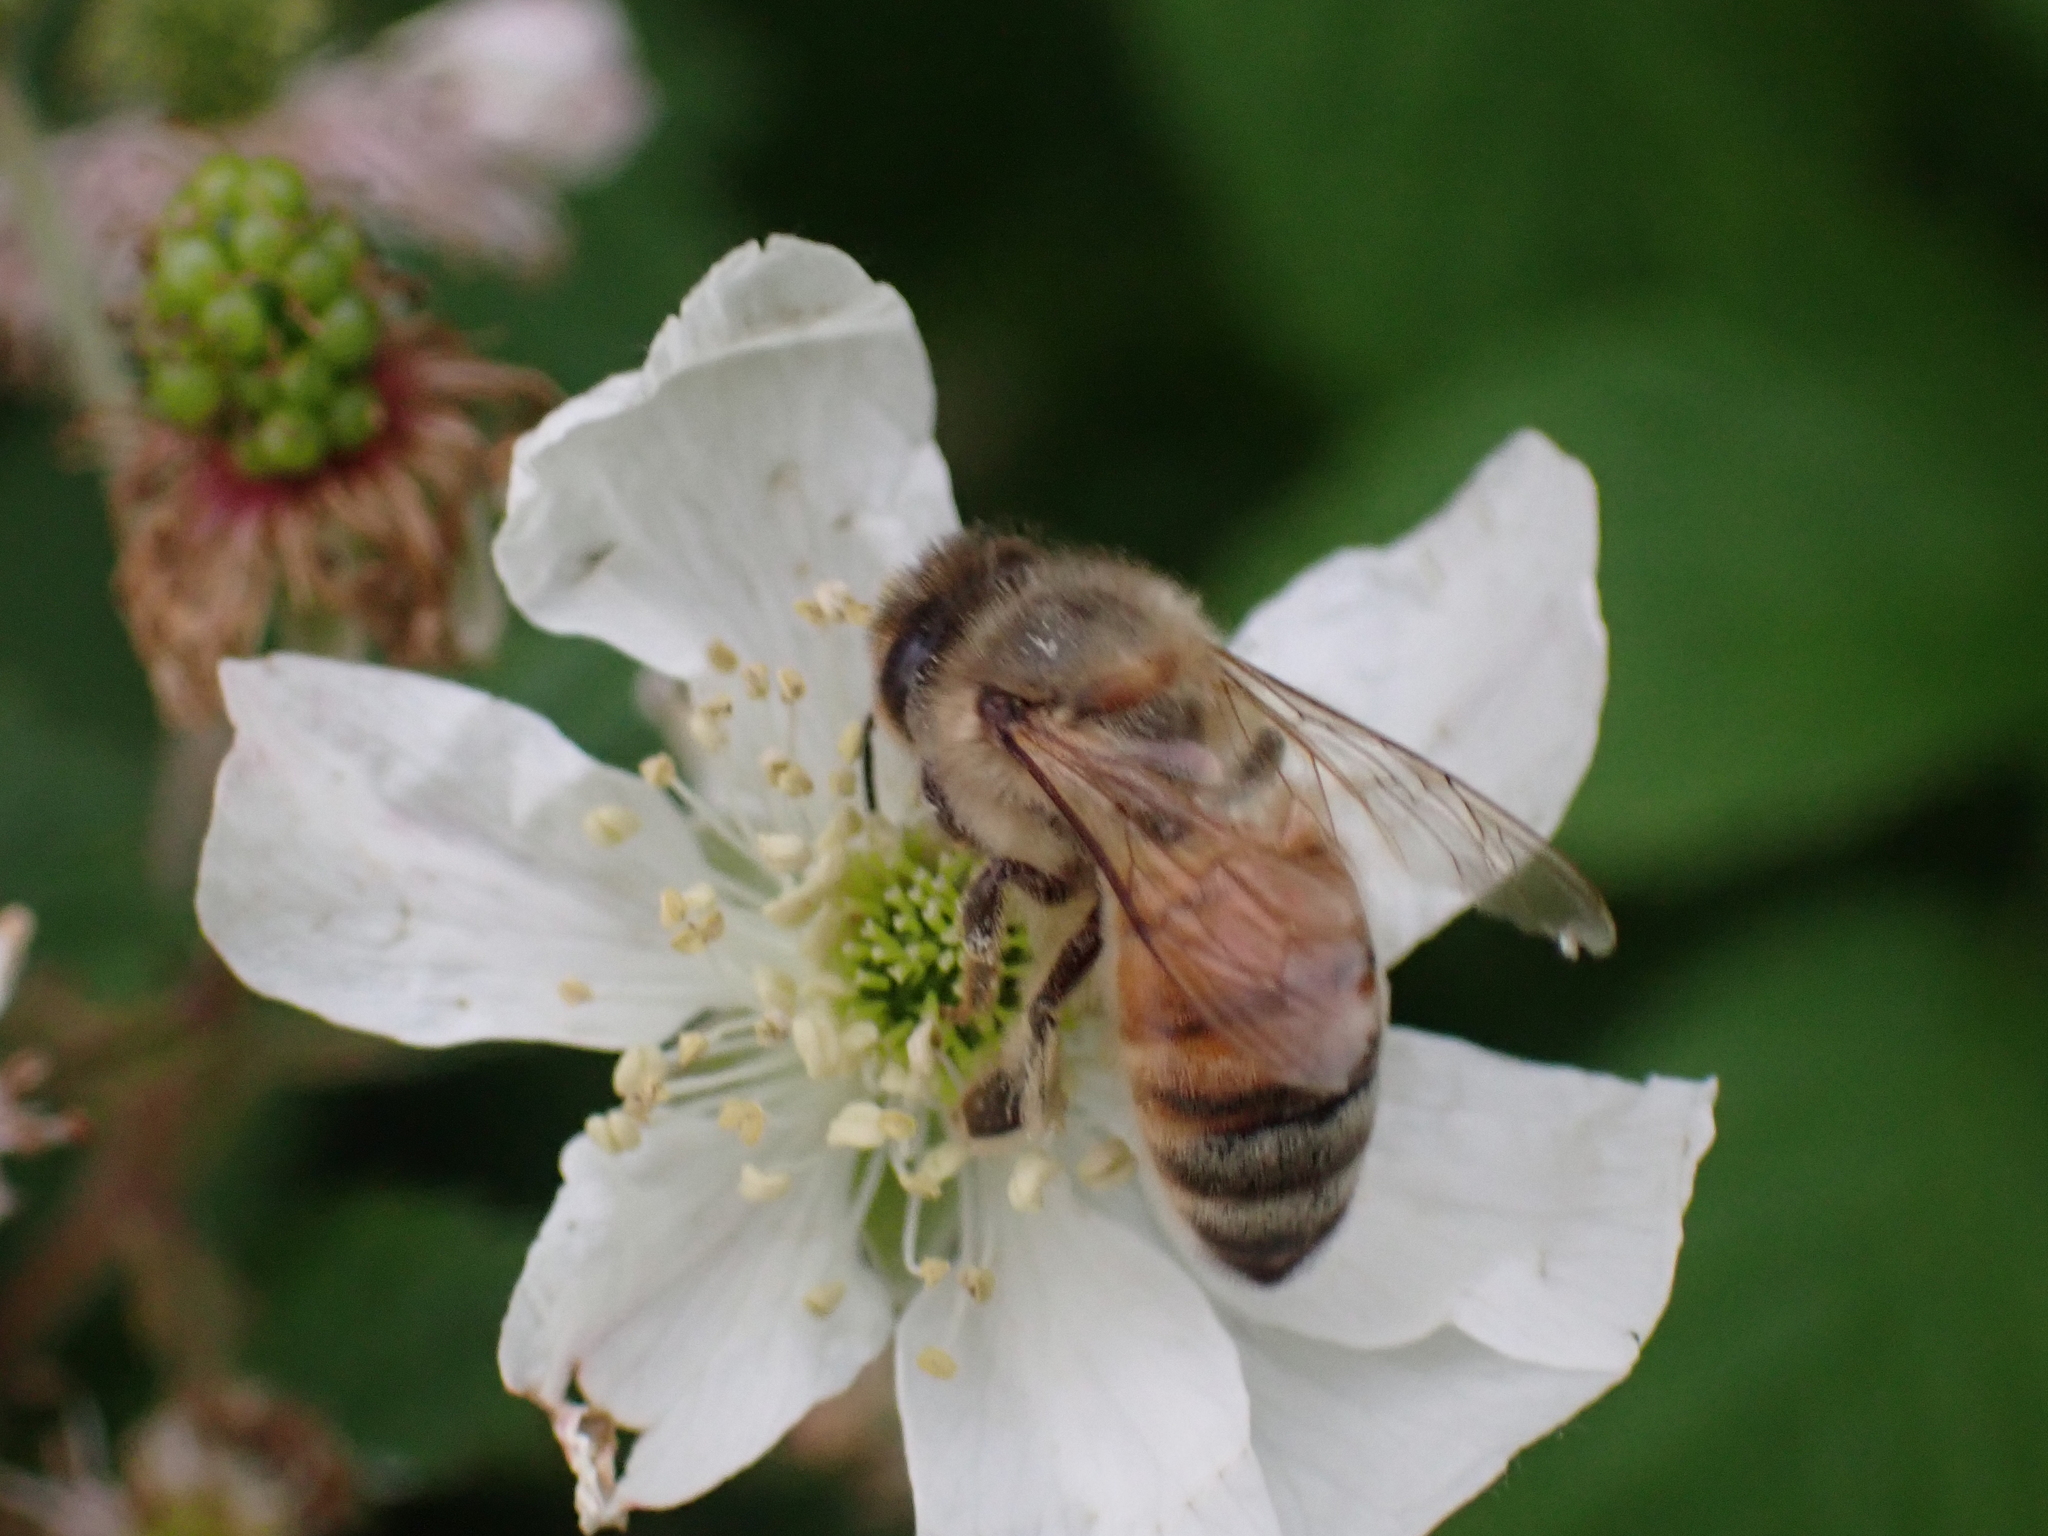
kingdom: Animalia
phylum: Arthropoda
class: Insecta
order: Hymenoptera
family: Apidae
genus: Apis
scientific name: Apis mellifera
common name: Honey bee
